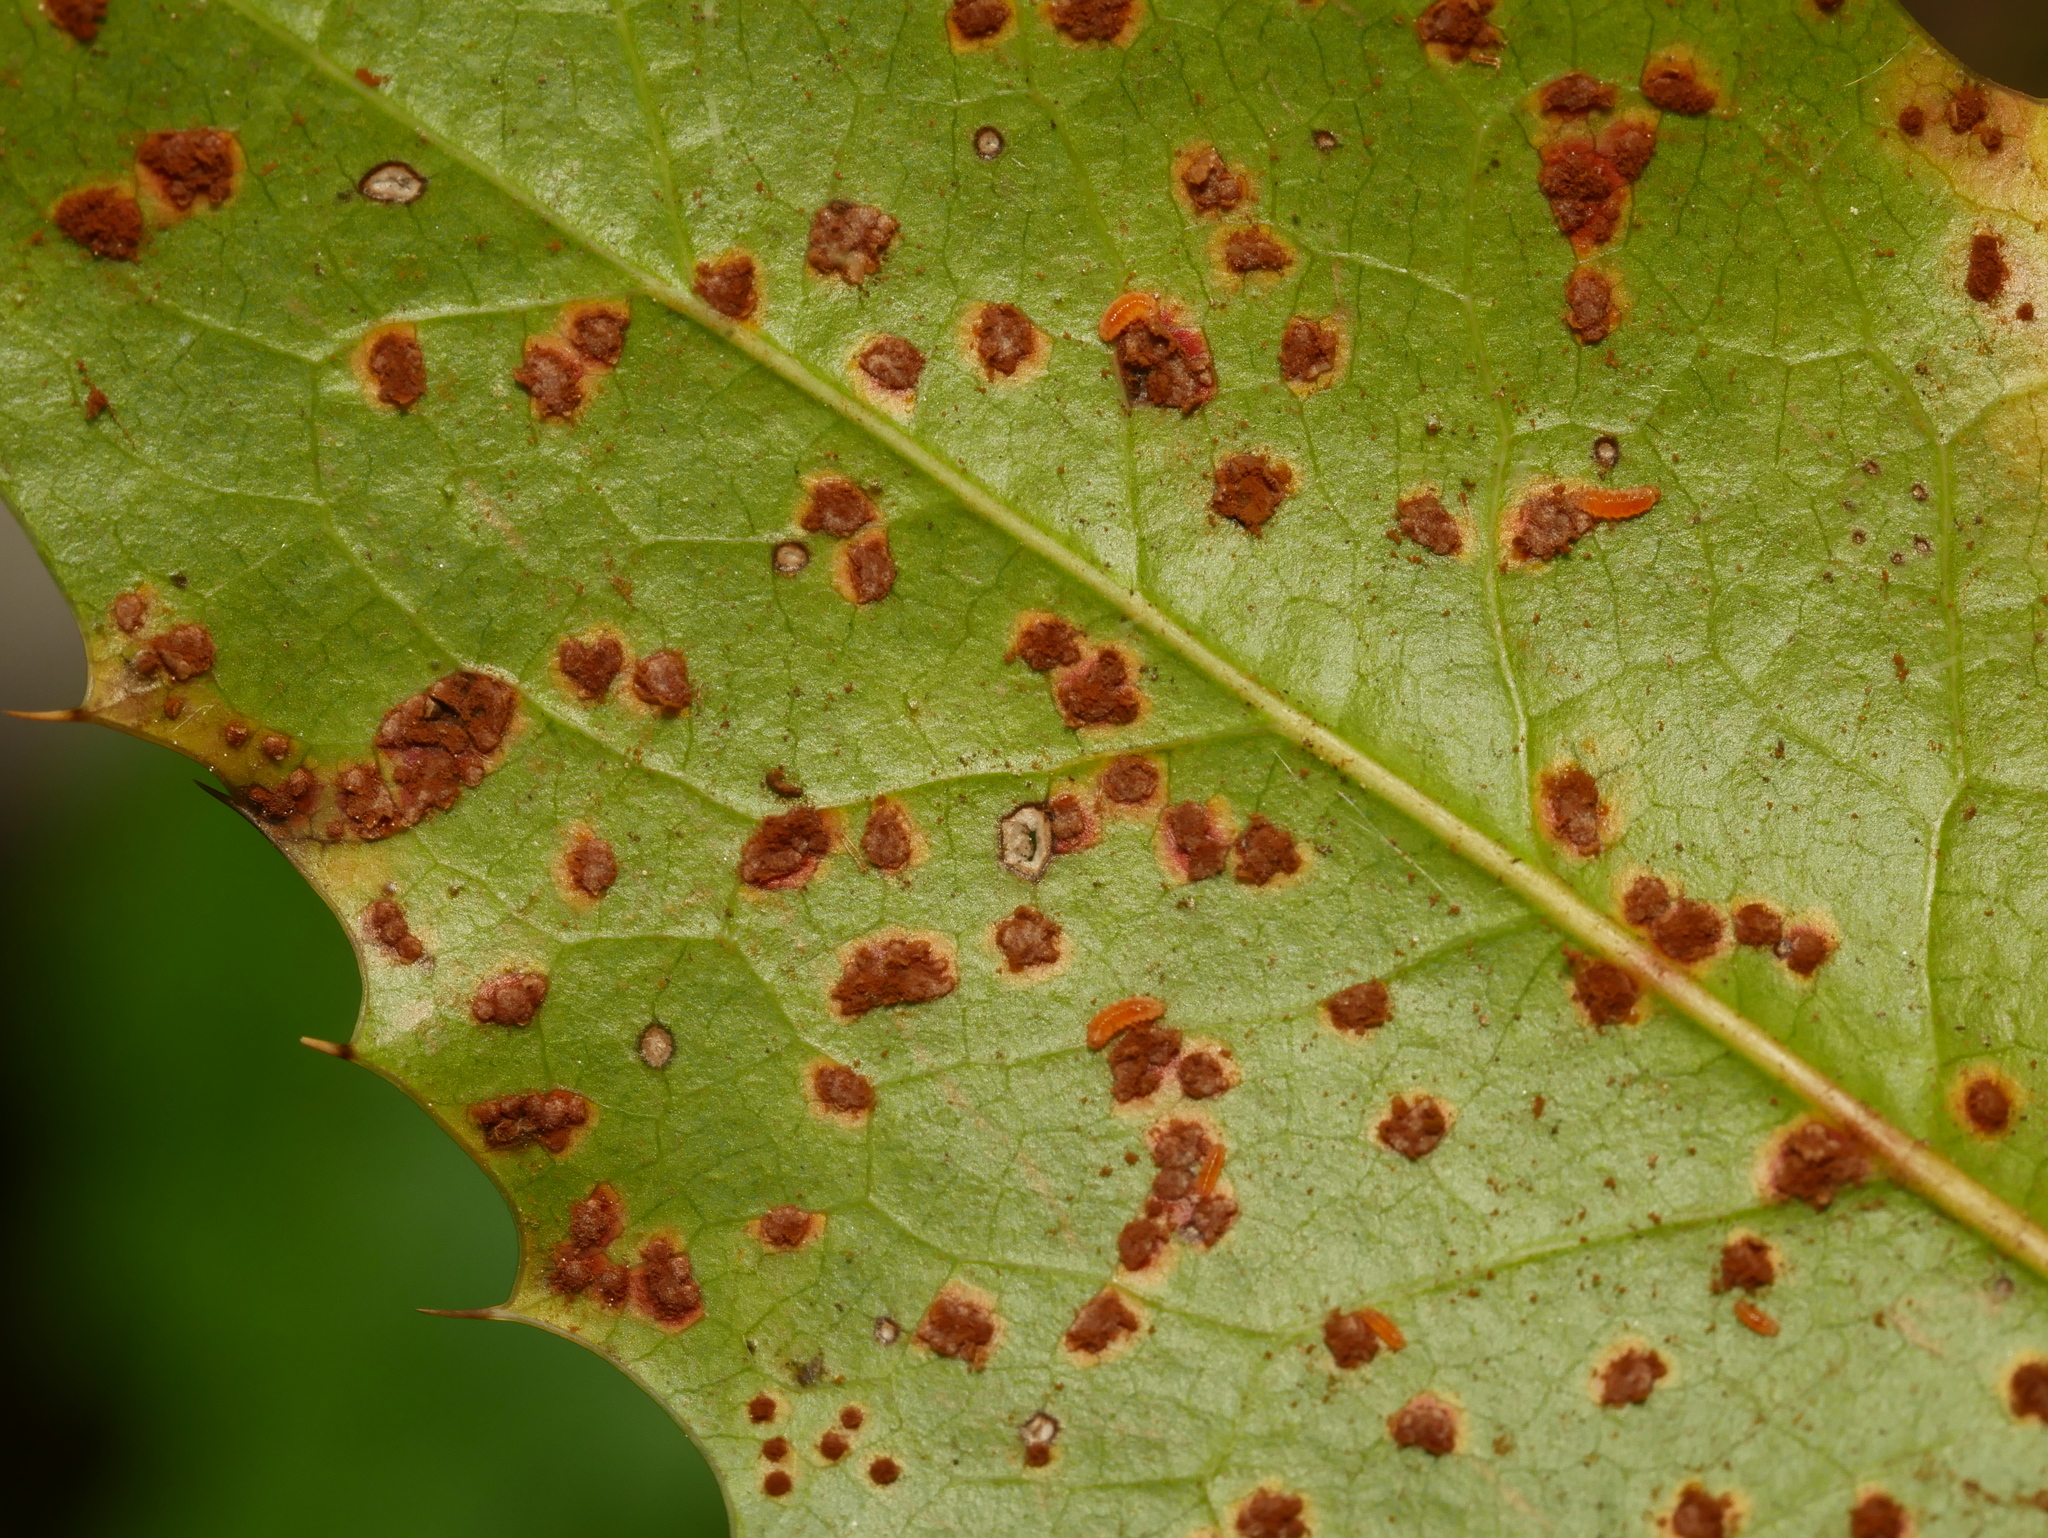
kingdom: Fungi
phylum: Basidiomycota
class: Pucciniomycetes
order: Pucciniales
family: Pucciniaceae
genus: Cumminsiella
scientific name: Cumminsiella mirabilissima
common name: Mahonia rust
